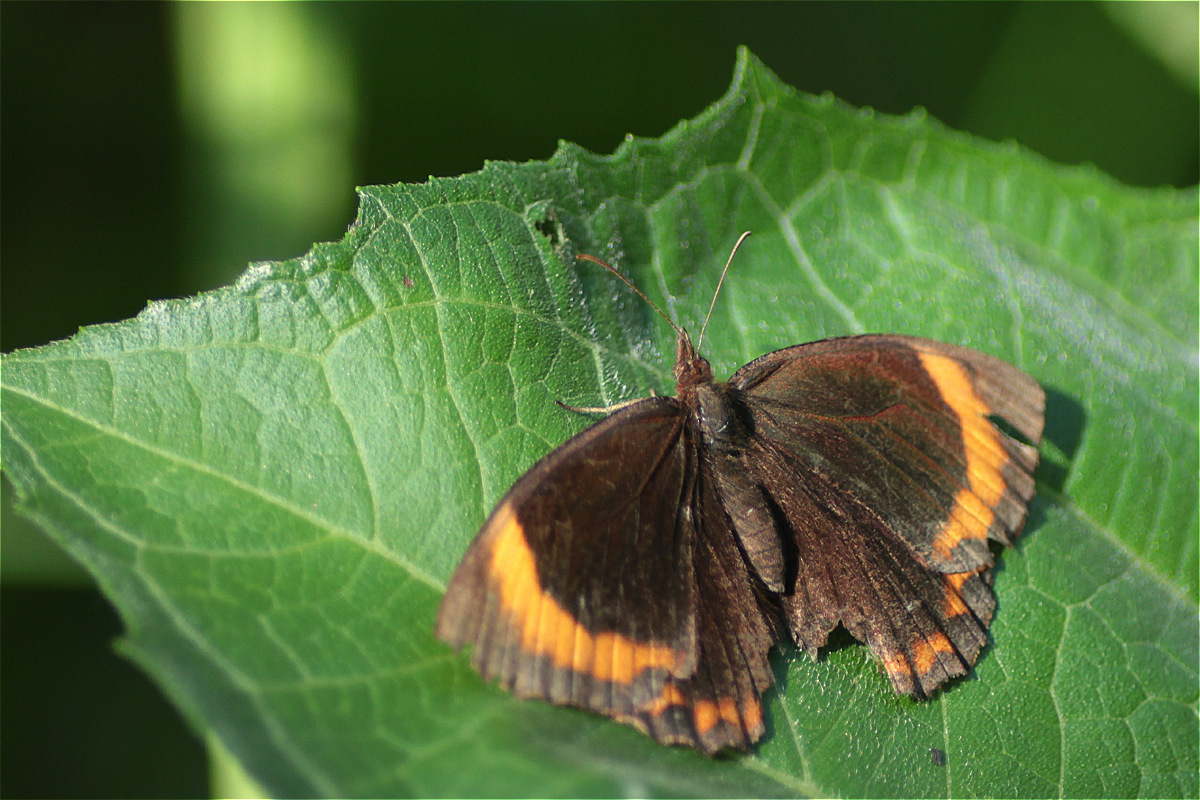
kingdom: Animalia
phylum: Arthropoda
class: Insecta
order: Lepidoptera
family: Nymphalidae
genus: Parapedaliodes
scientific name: Parapedaliodes parepa
